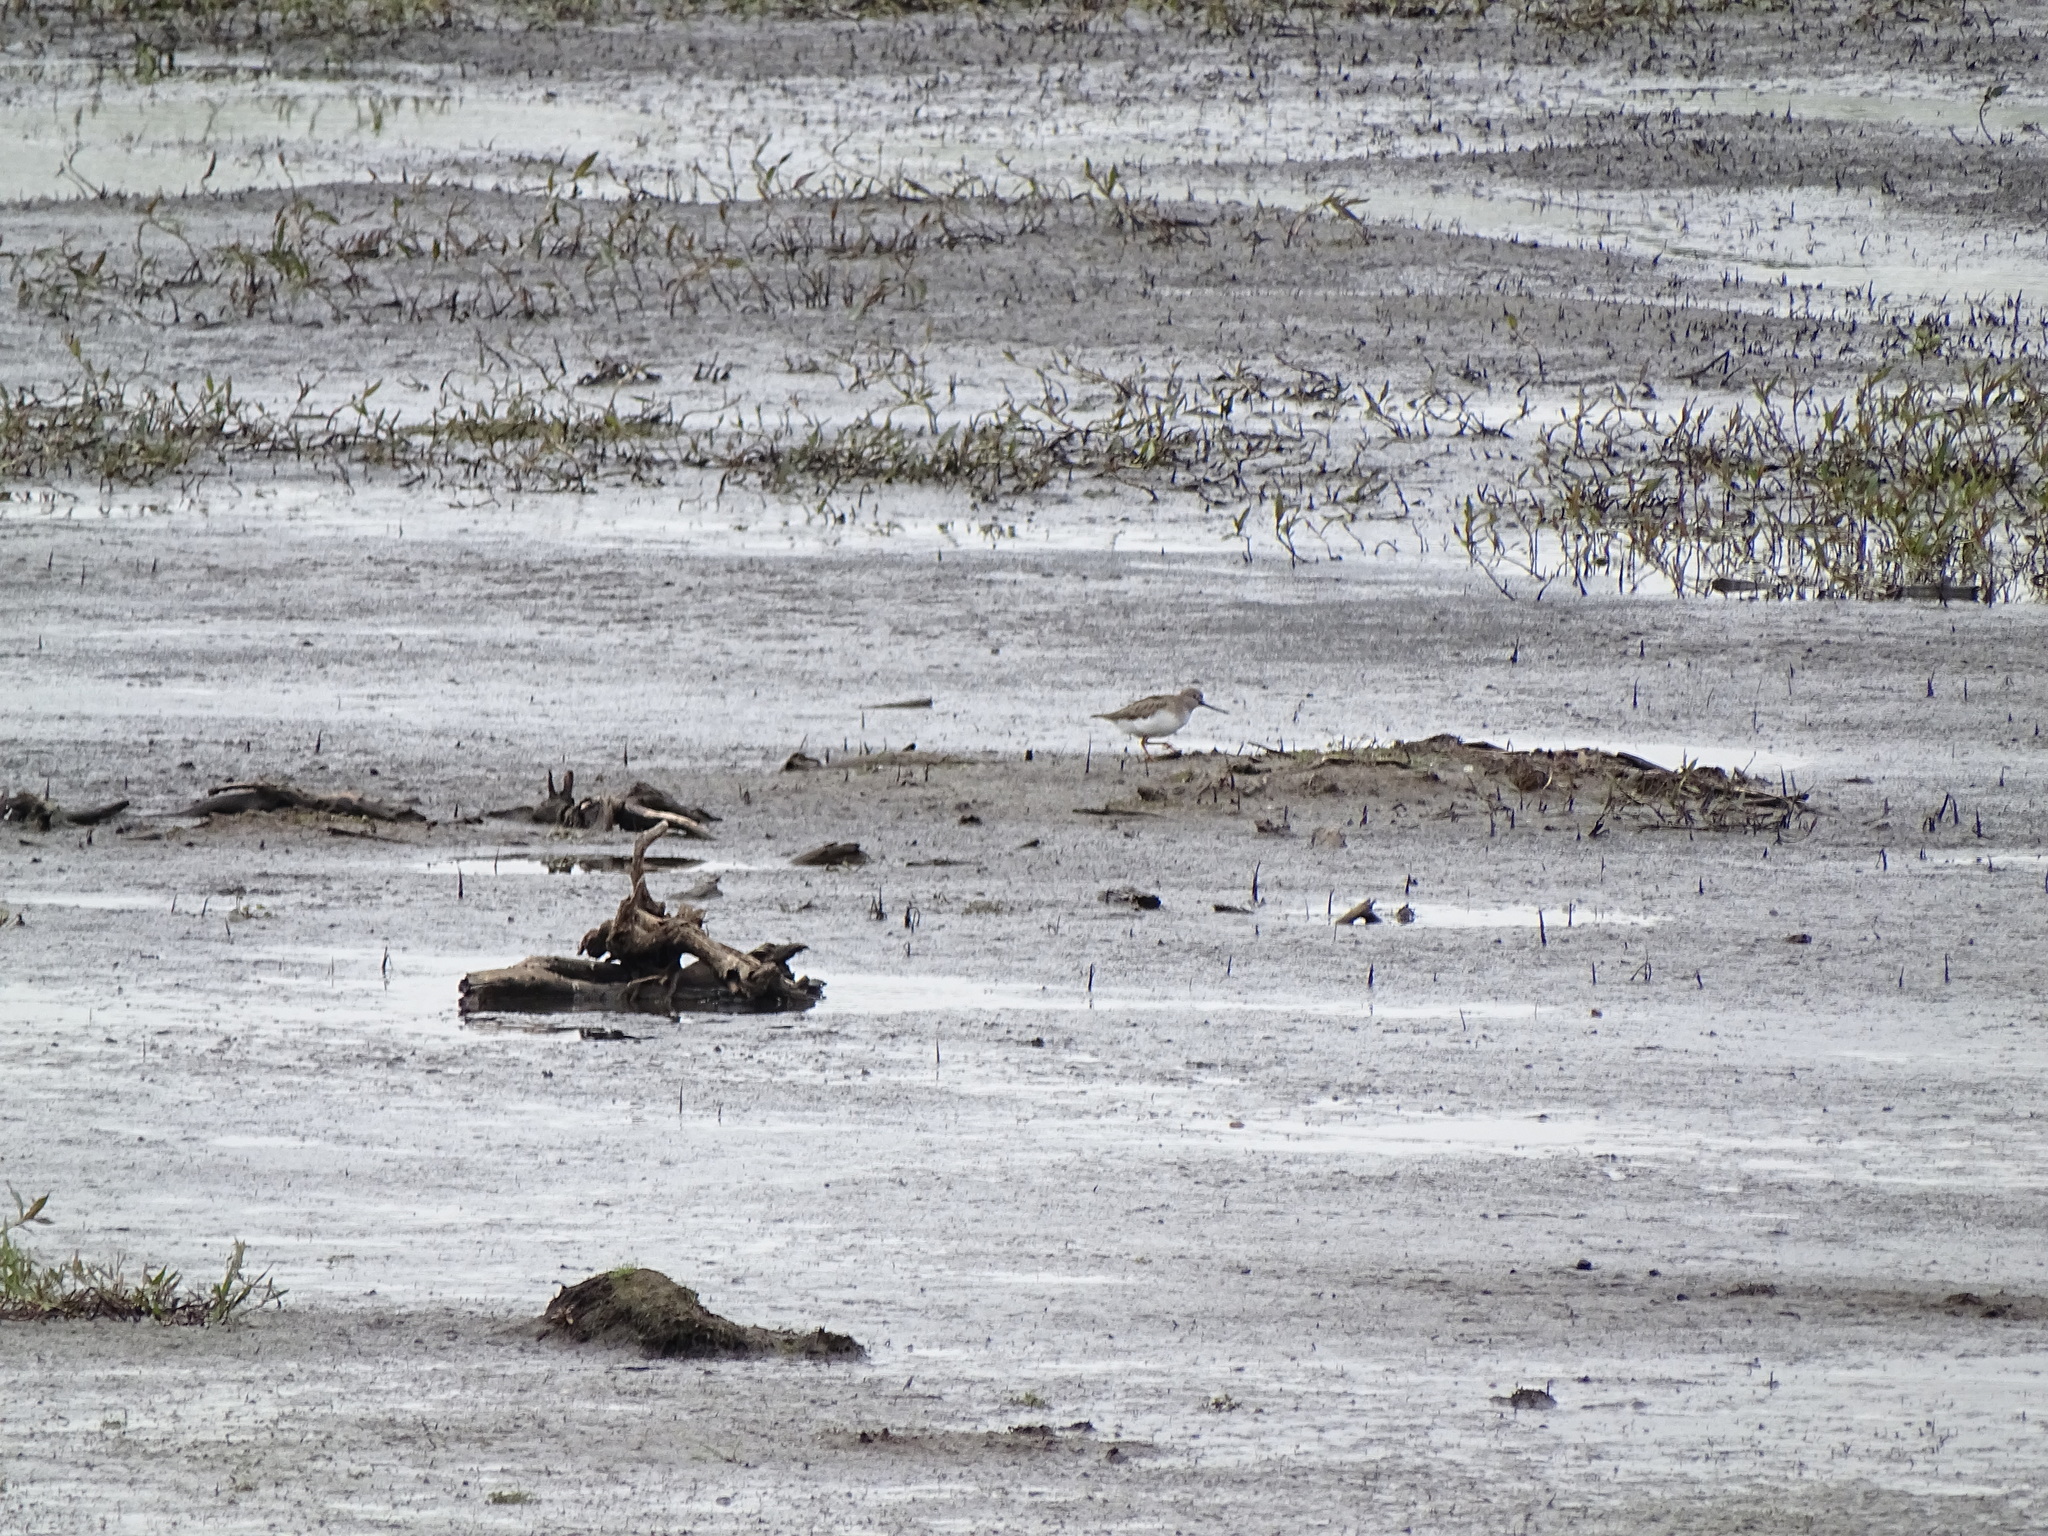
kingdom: Animalia
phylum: Chordata
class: Aves
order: Charadriiformes
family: Scolopacidae
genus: Xenus
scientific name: Xenus cinereus
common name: Terek sandpiper
